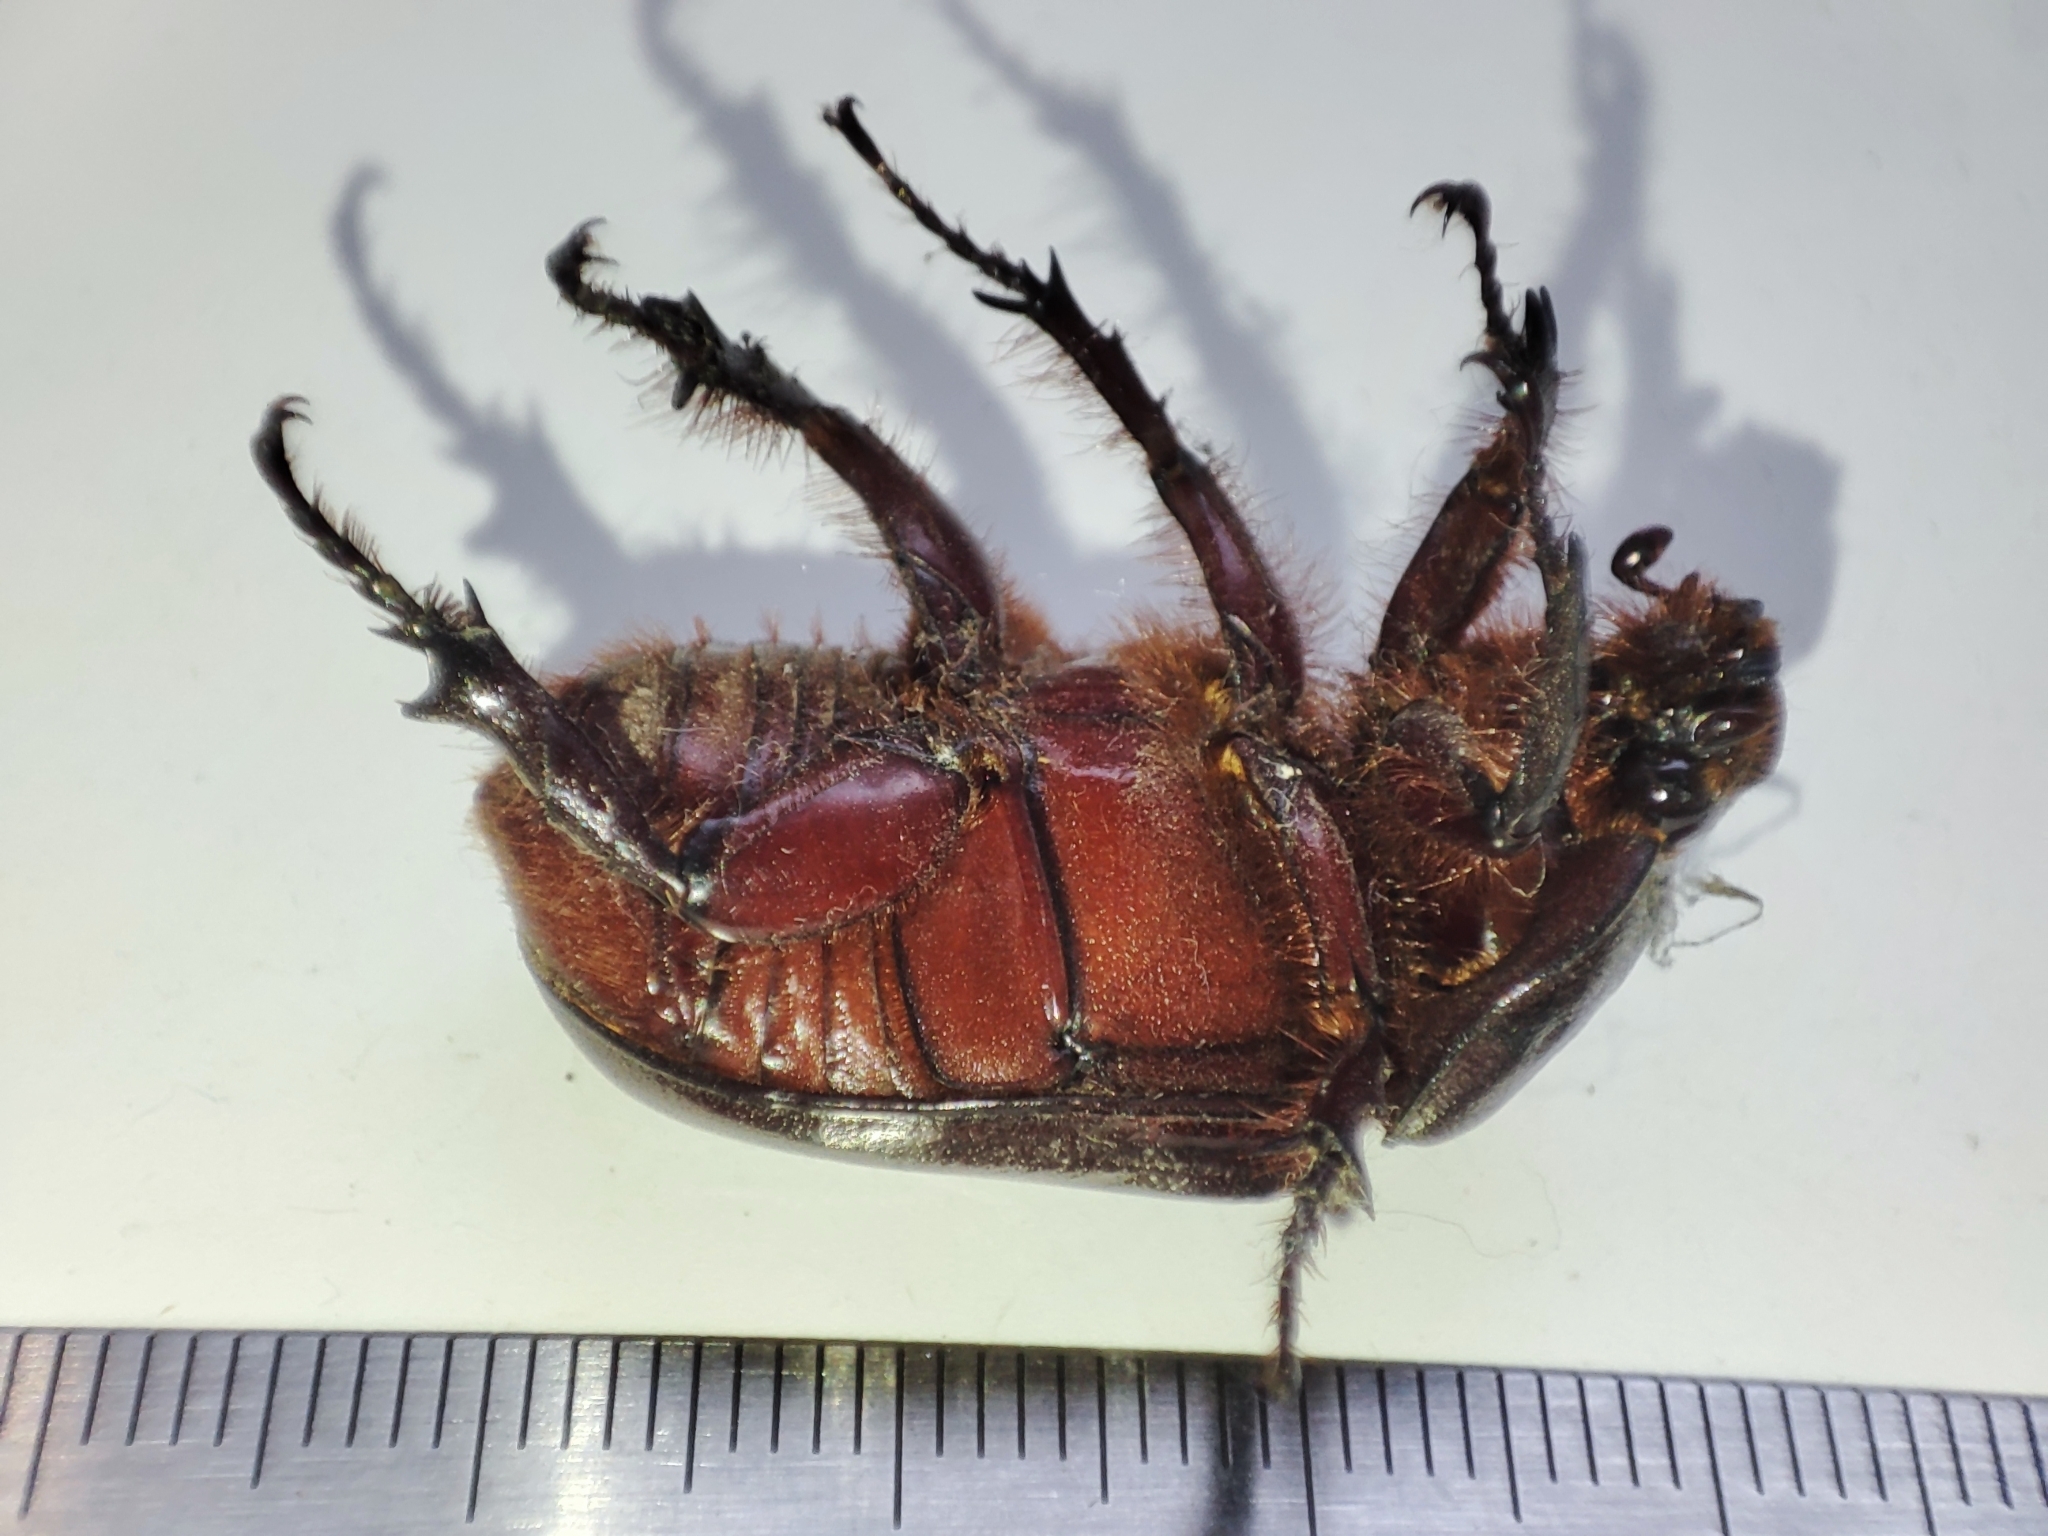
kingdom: Animalia
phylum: Arthropoda
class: Insecta
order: Coleoptera
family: Scarabaeidae
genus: Oryctes
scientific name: Oryctes nasicornis
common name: European rhinoceros beetle
